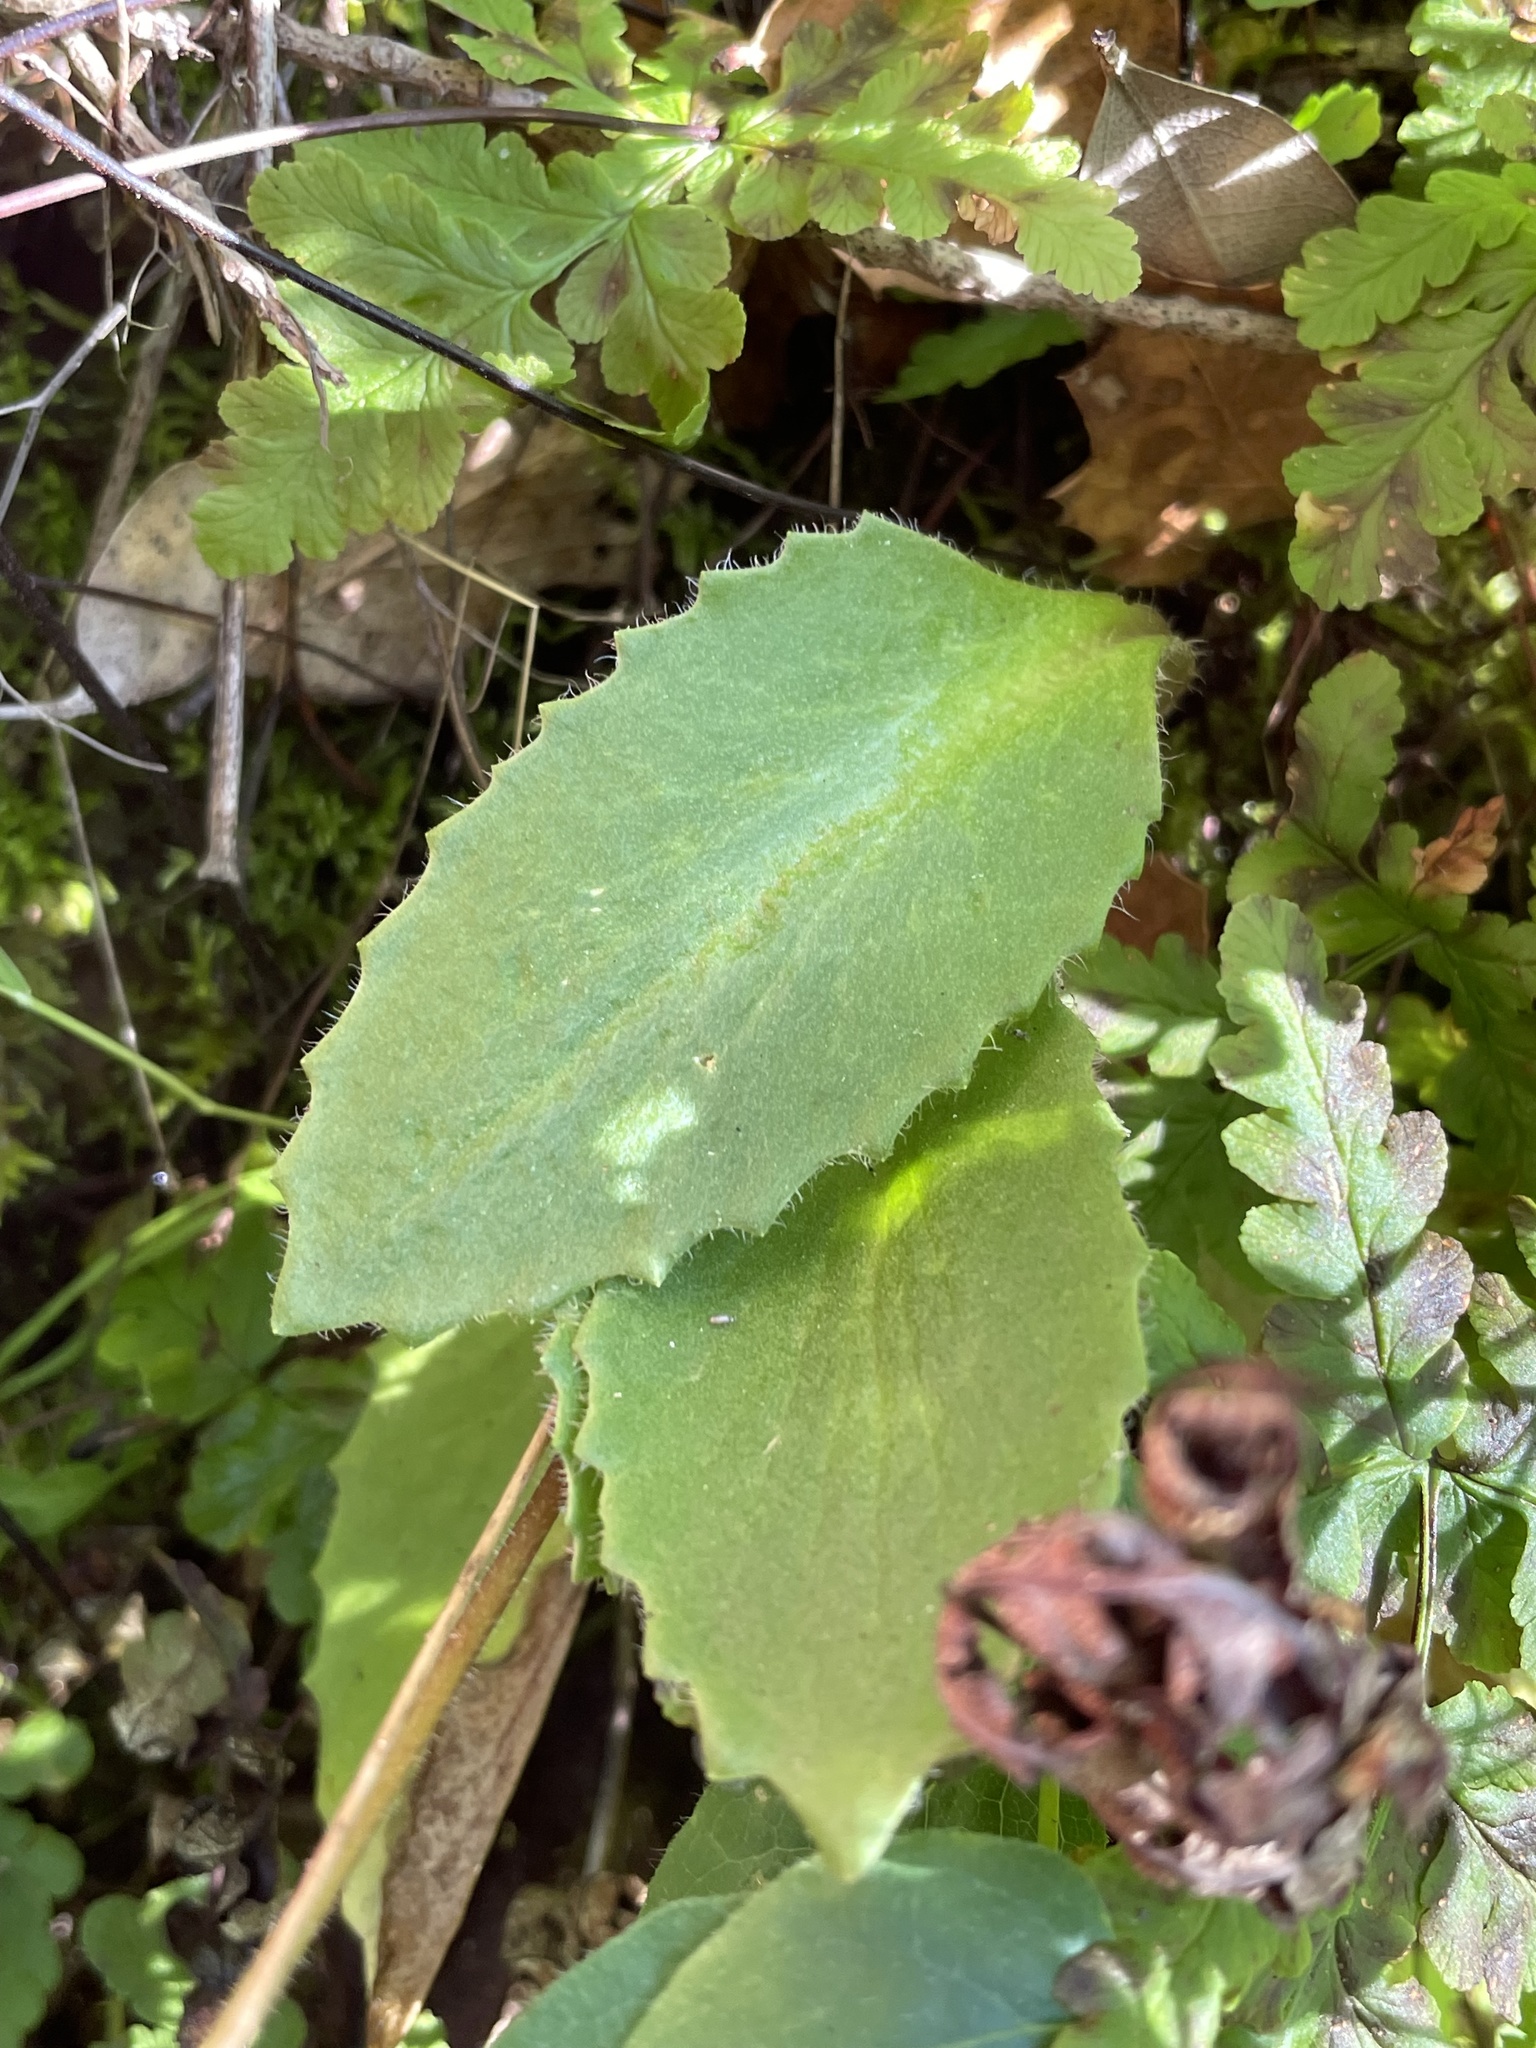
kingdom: Plantae
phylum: Tracheophyta
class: Magnoliopsida
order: Saxifragales
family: Saxifragaceae
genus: Micranthes
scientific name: Micranthes californica
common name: California saxifrage
